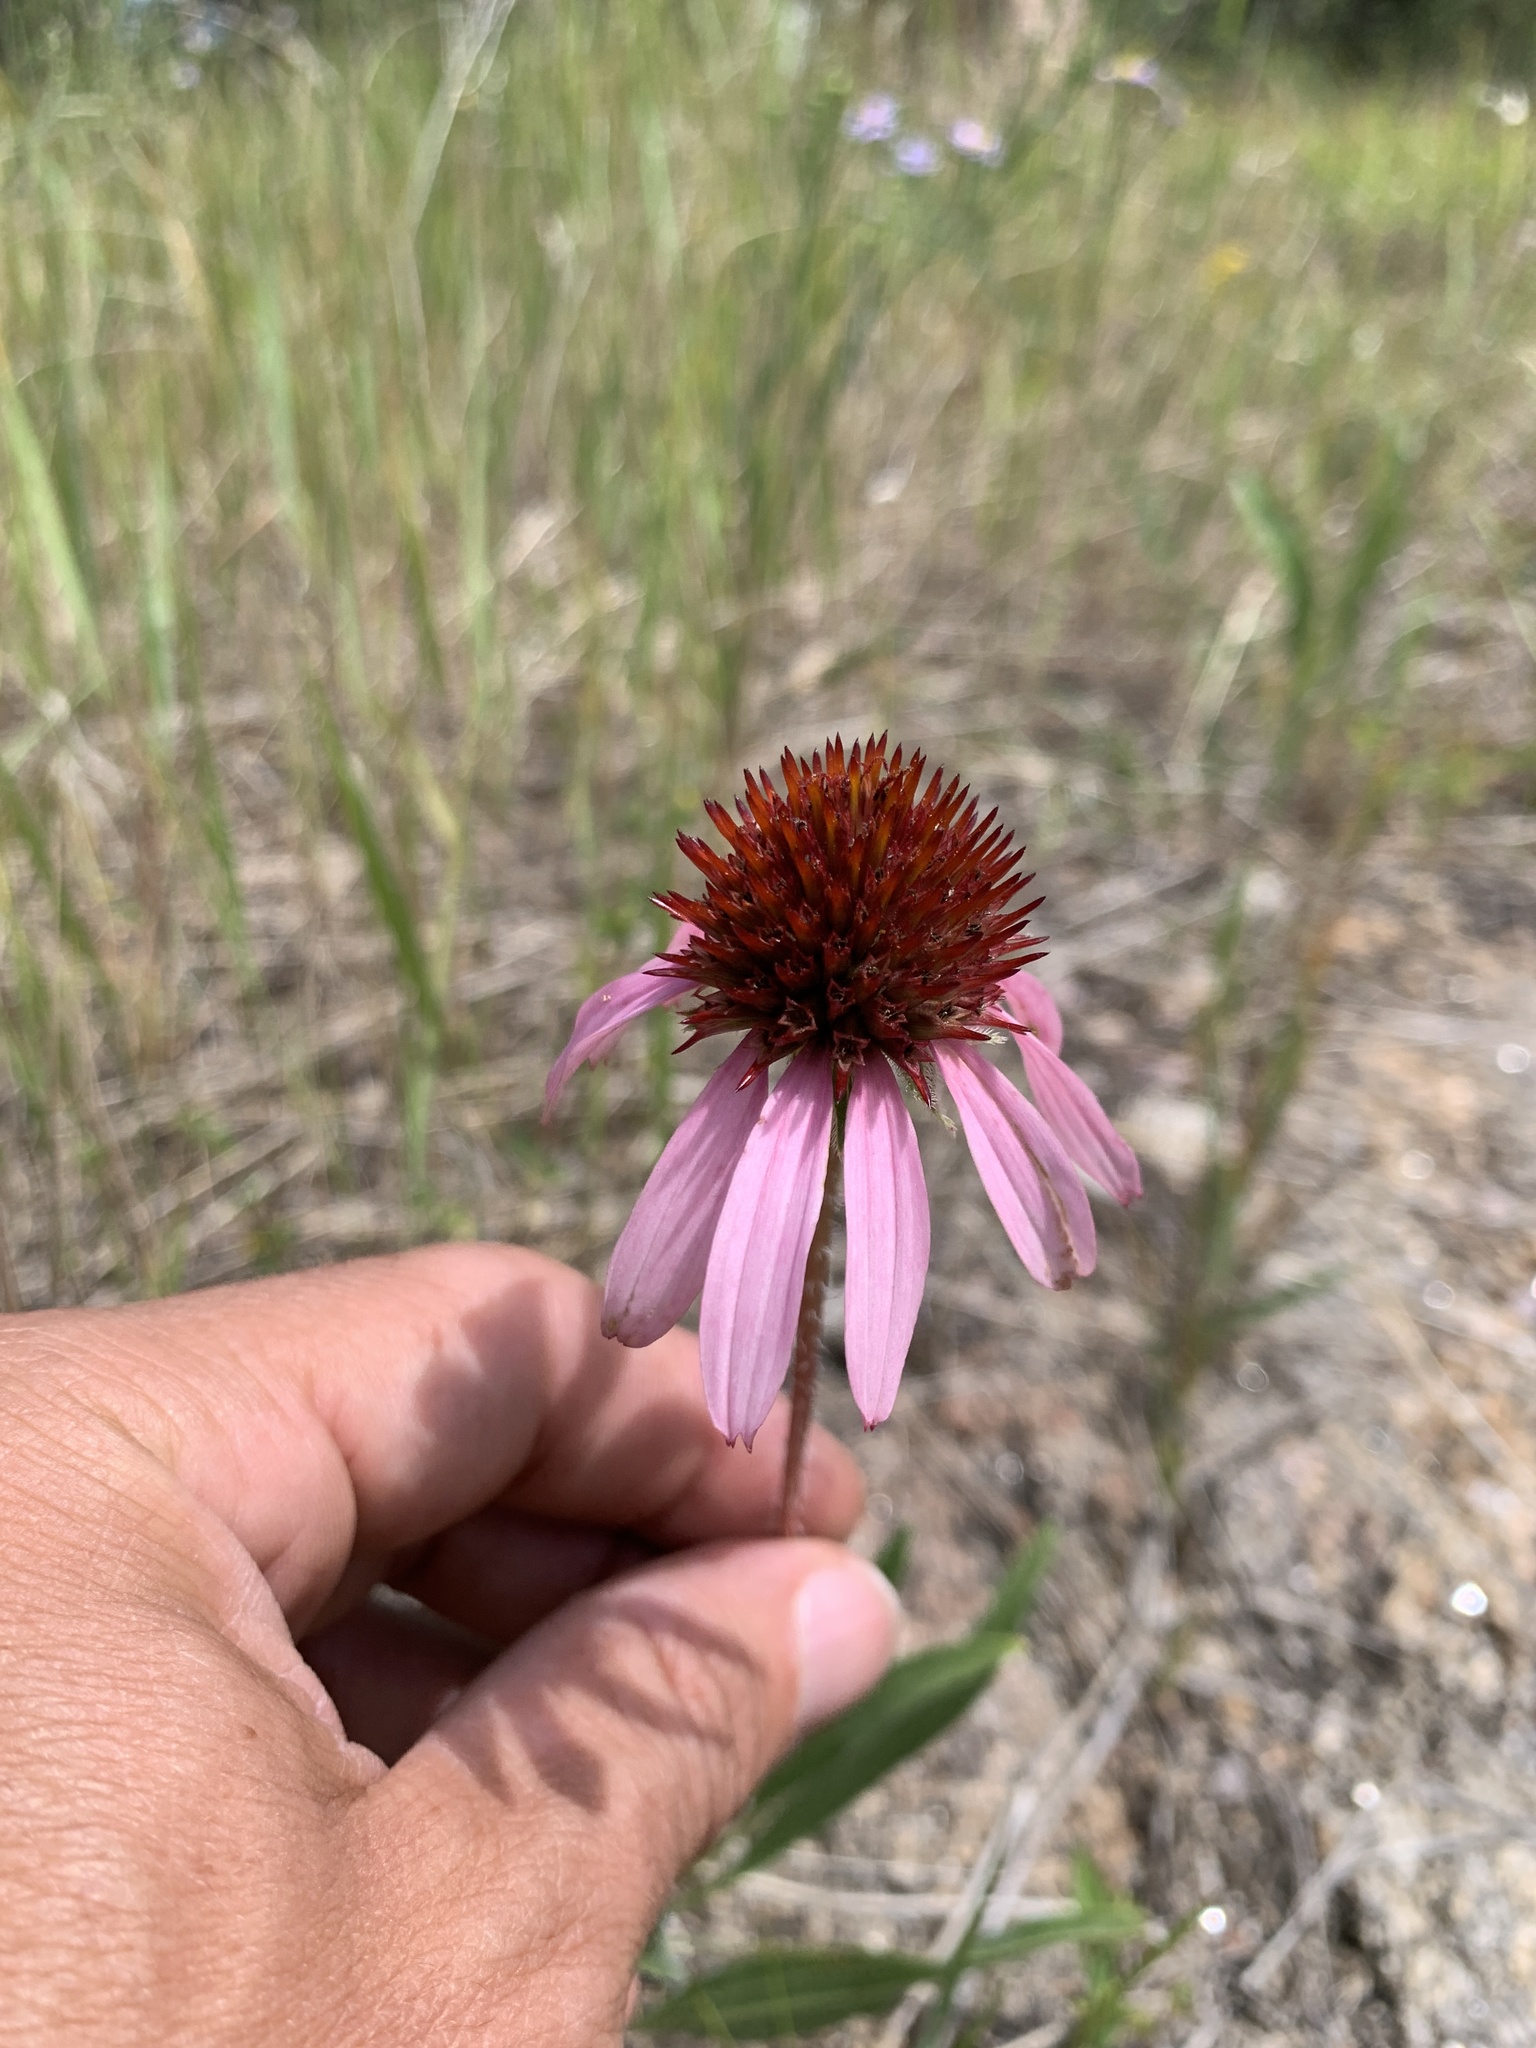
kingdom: Plantae
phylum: Tracheophyta
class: Magnoliopsida
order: Asterales
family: Asteraceae
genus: Echinacea
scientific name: Echinacea angustifolia
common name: Black-sampson echinacea
